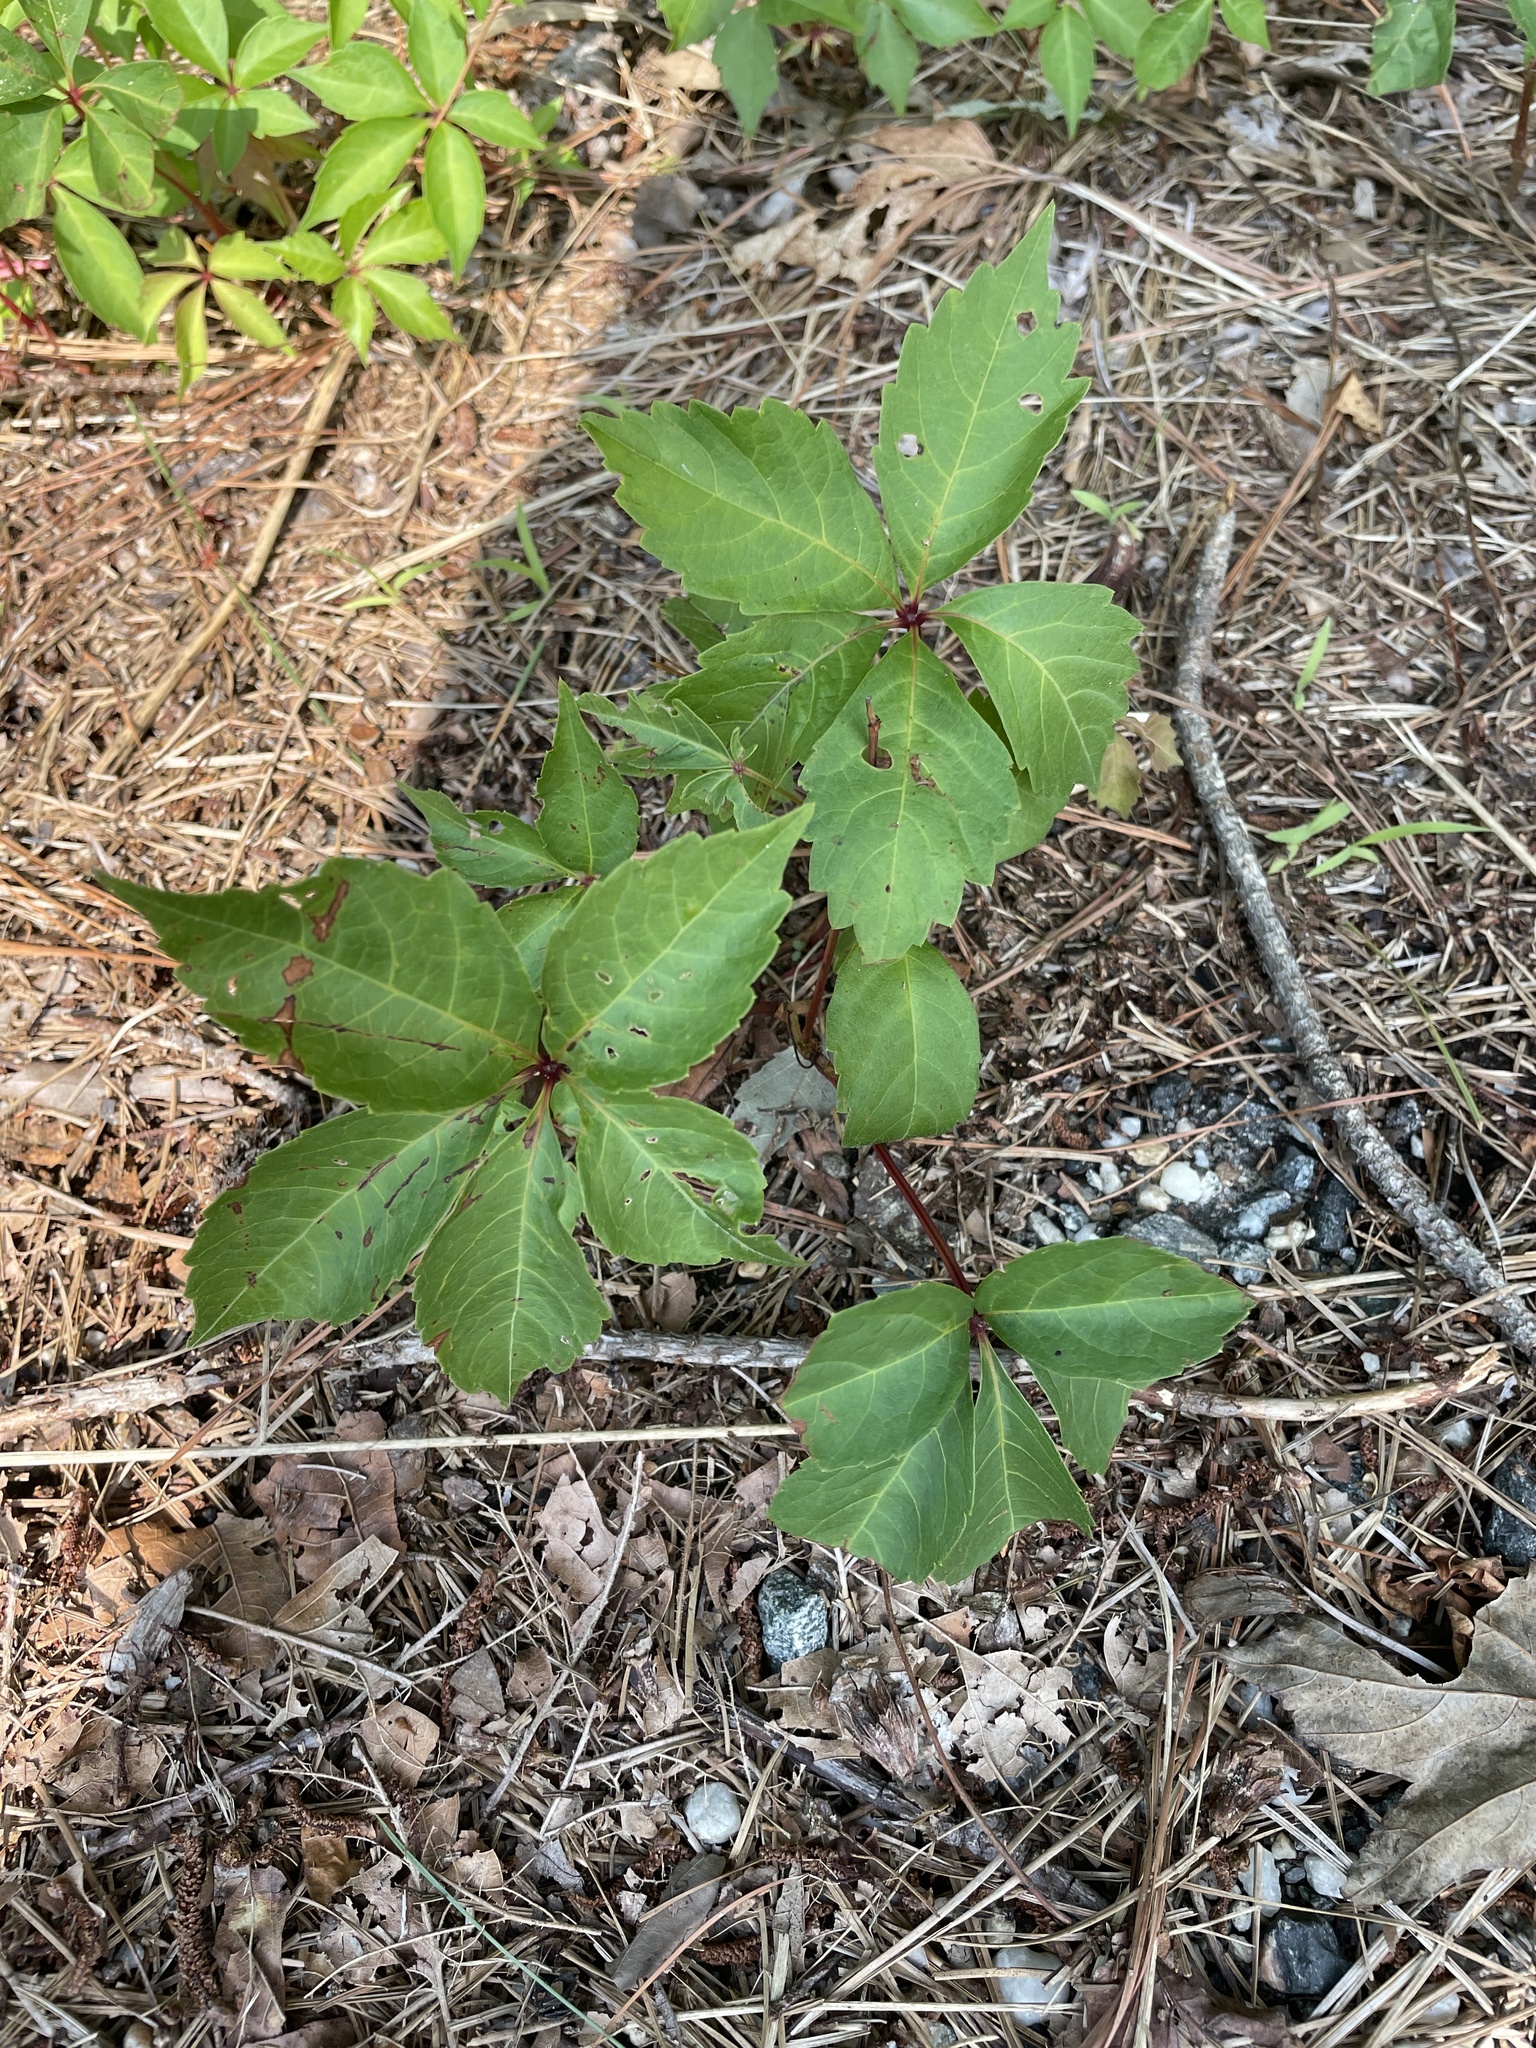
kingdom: Plantae
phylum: Tracheophyta
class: Magnoliopsida
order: Vitales
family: Vitaceae
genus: Parthenocissus
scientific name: Parthenocissus quinquefolia
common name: Virginia-creeper
